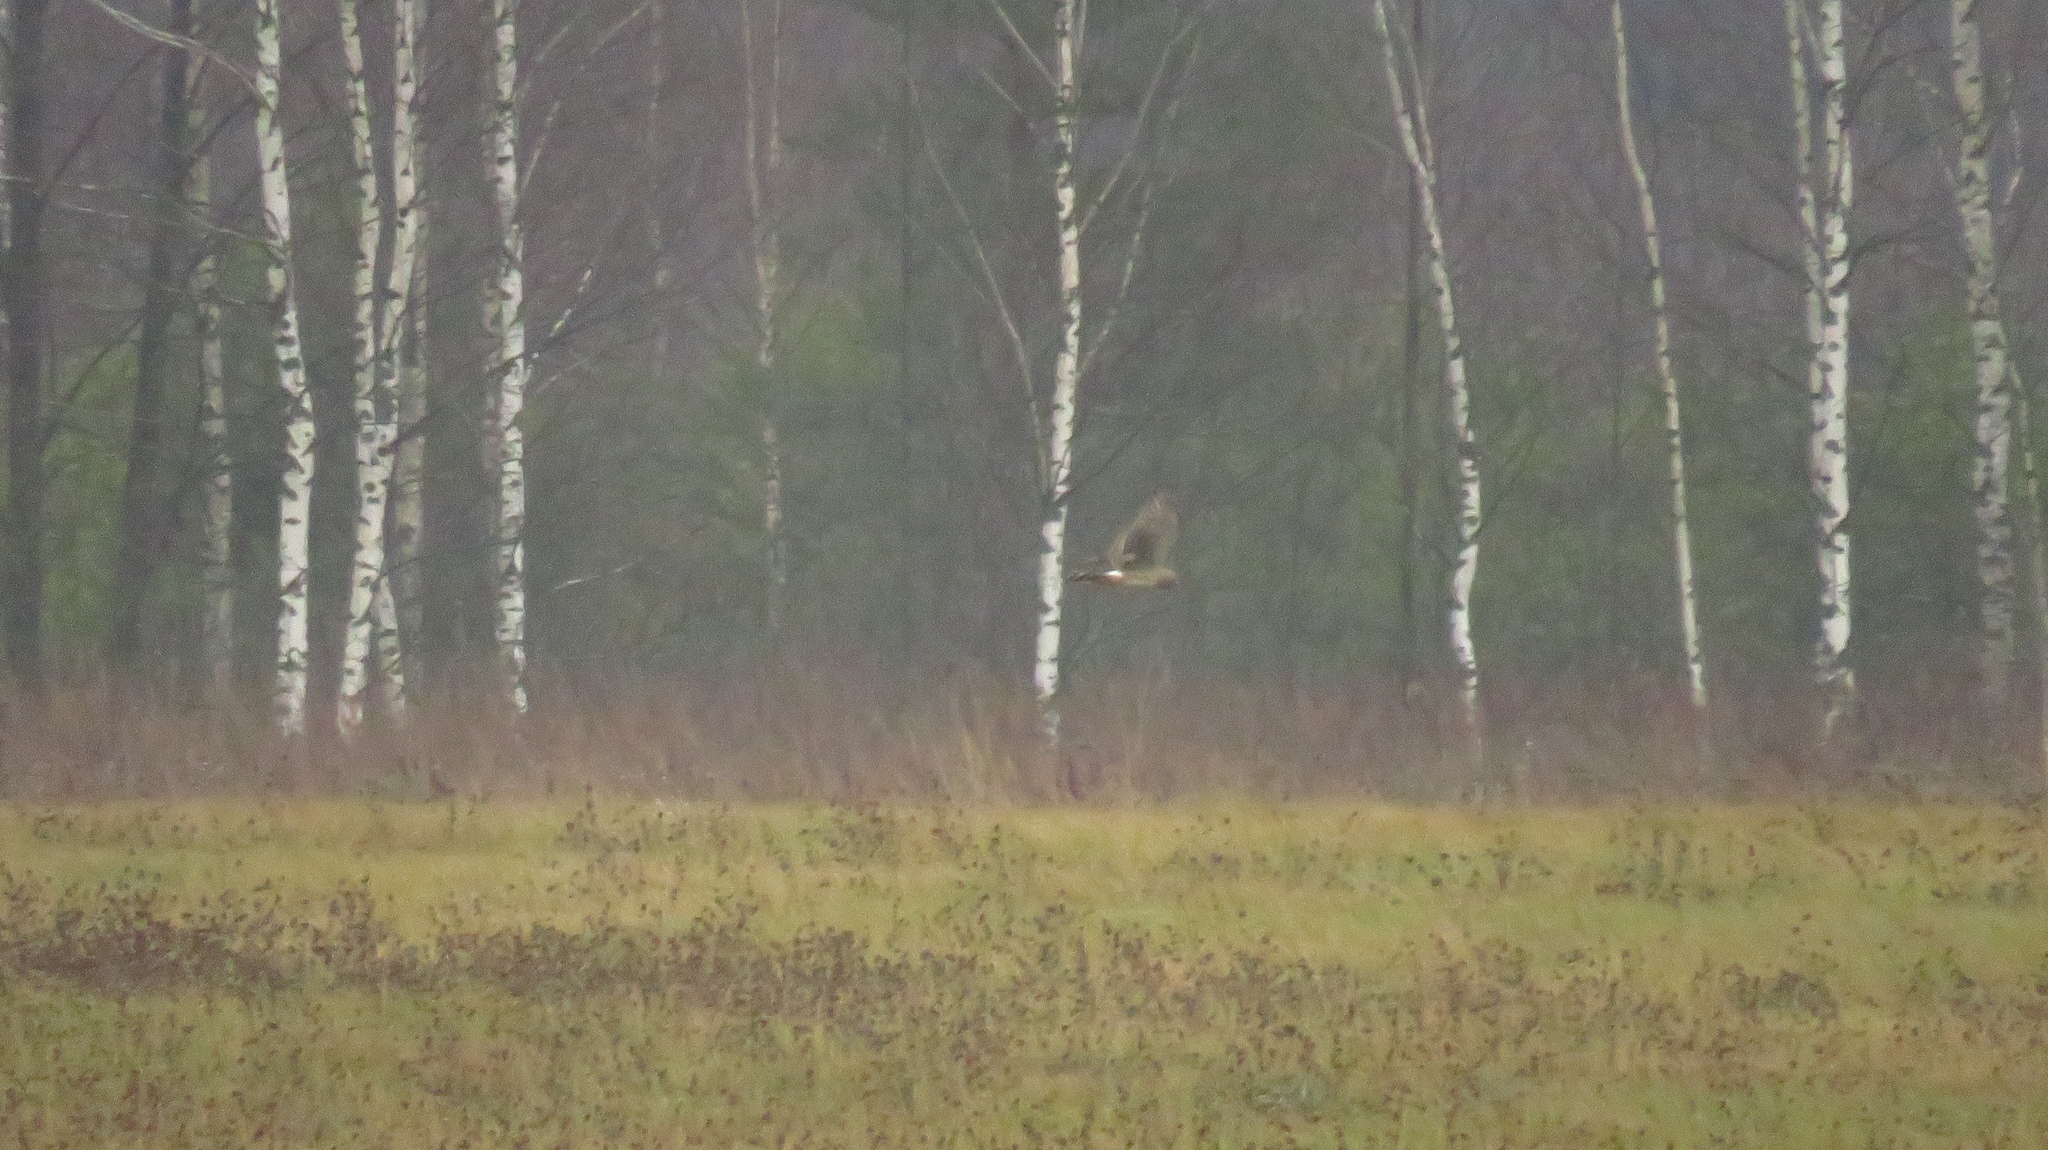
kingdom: Animalia
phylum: Chordata
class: Aves
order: Accipitriformes
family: Accipitridae
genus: Circus
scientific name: Circus cyaneus
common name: Hen harrier
